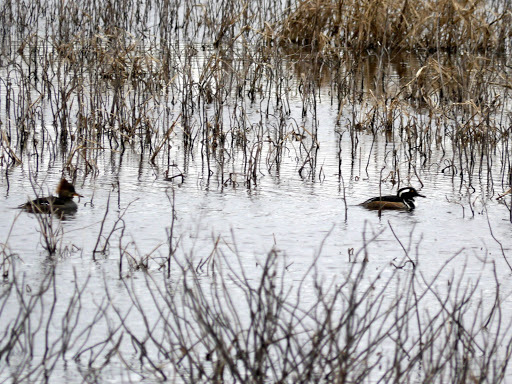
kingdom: Animalia
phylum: Chordata
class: Aves
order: Anseriformes
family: Anatidae
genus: Lophodytes
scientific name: Lophodytes cucullatus
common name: Hooded merganser
